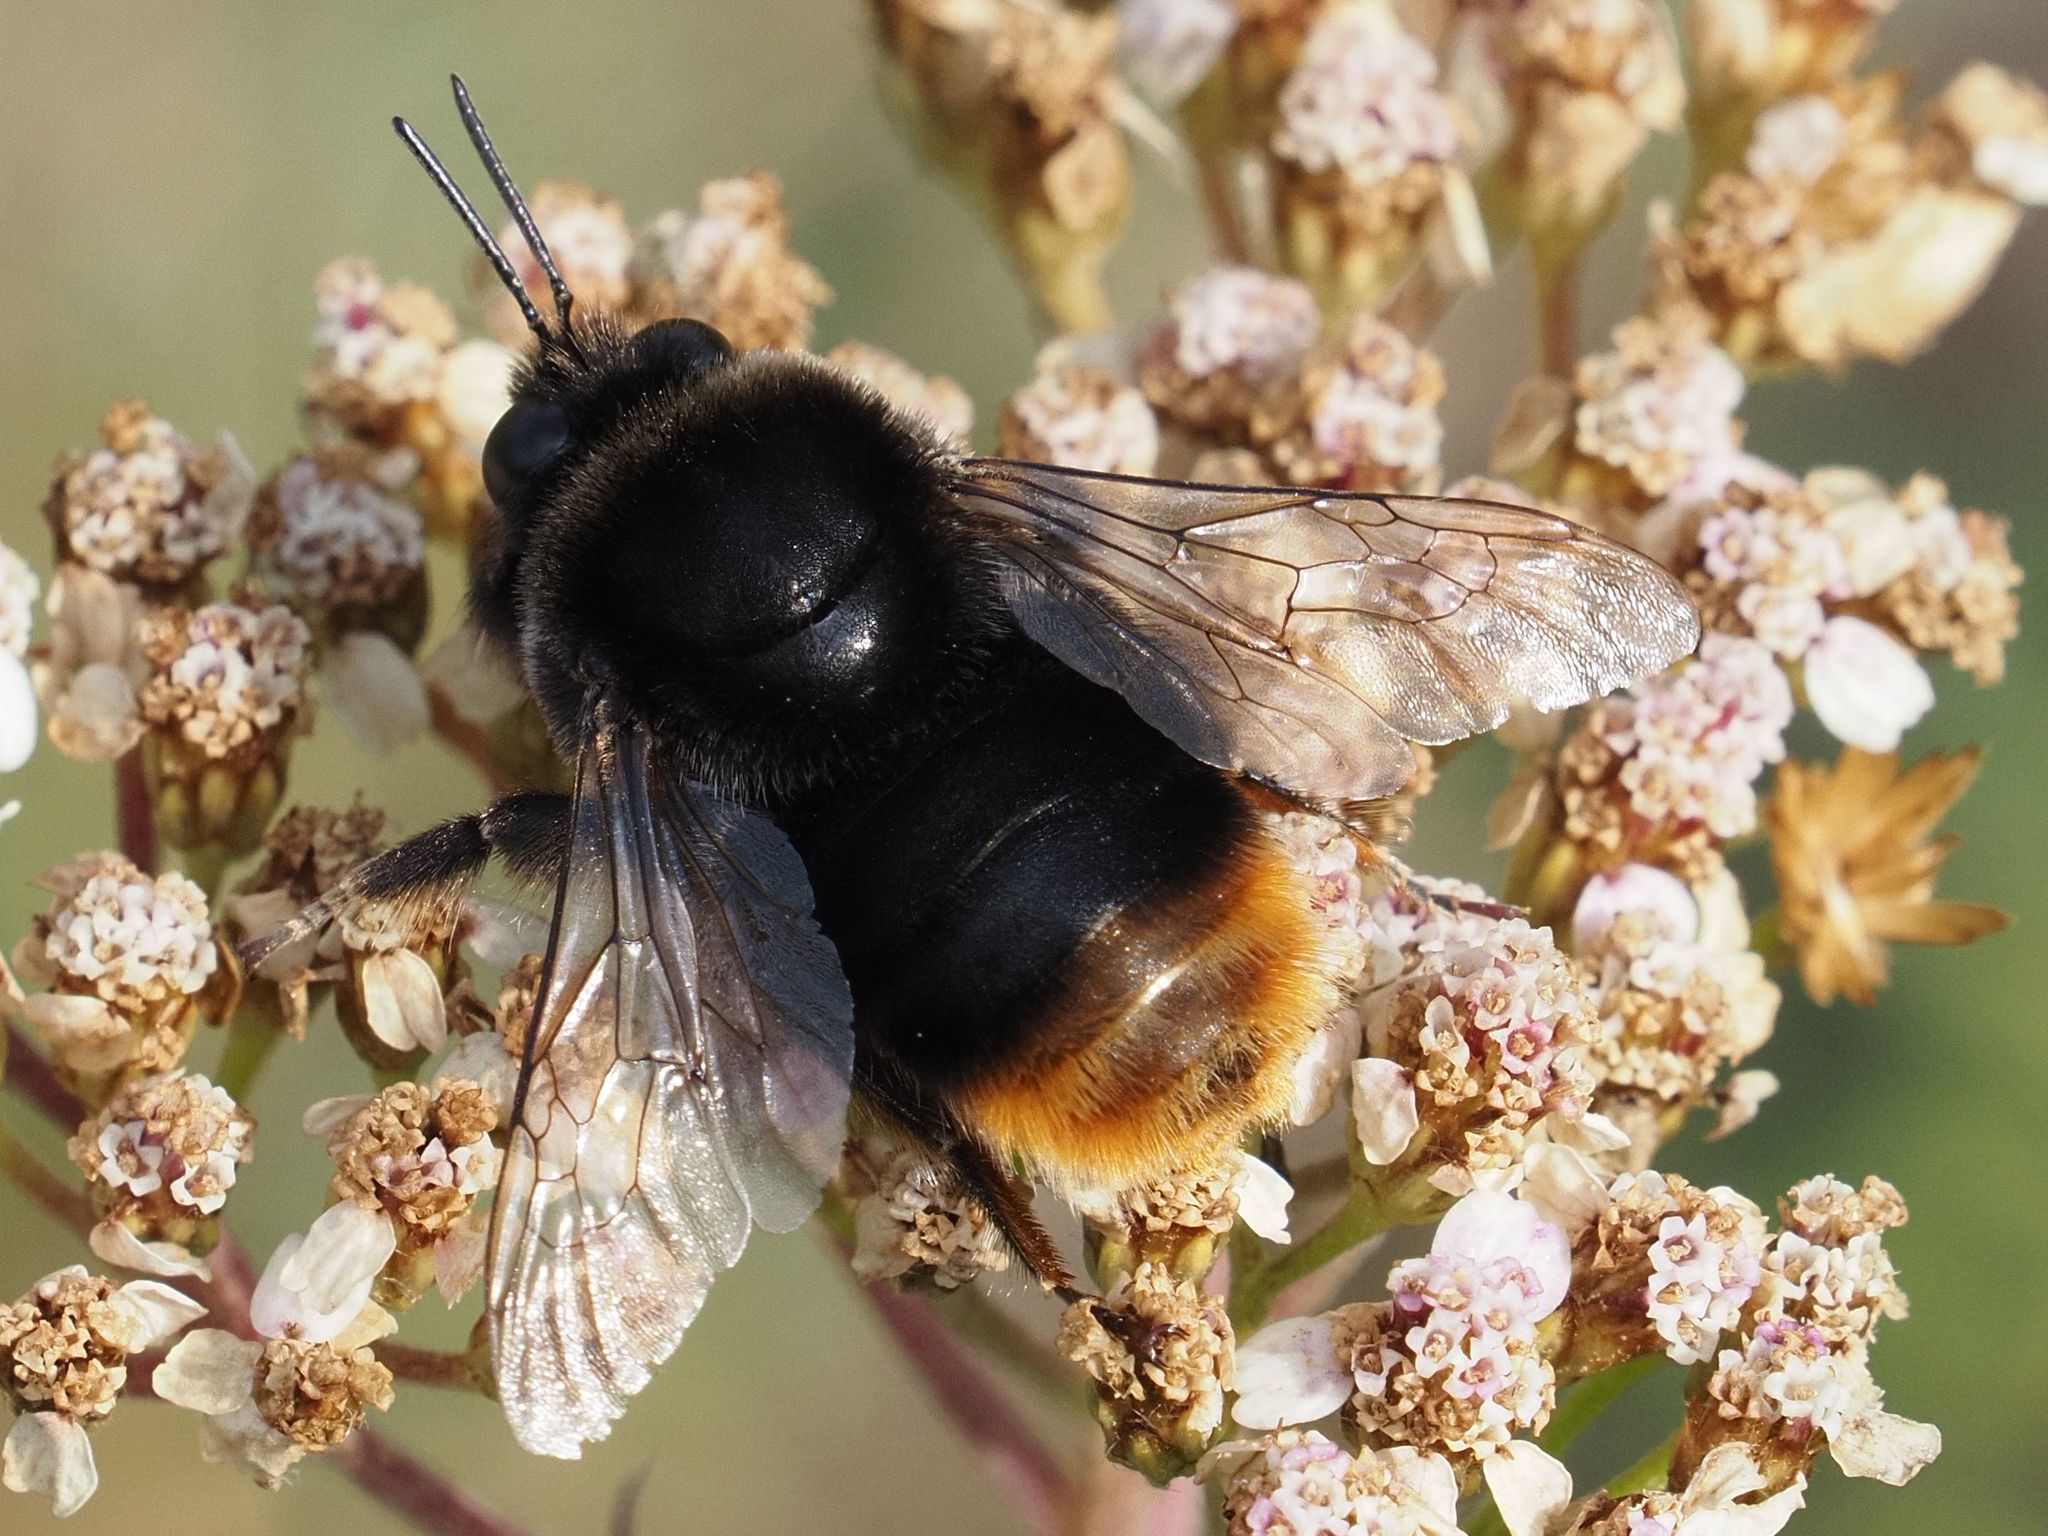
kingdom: Animalia
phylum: Arthropoda
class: Insecta
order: Hymenoptera
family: Apidae
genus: Bombus
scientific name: Bombus confusus
